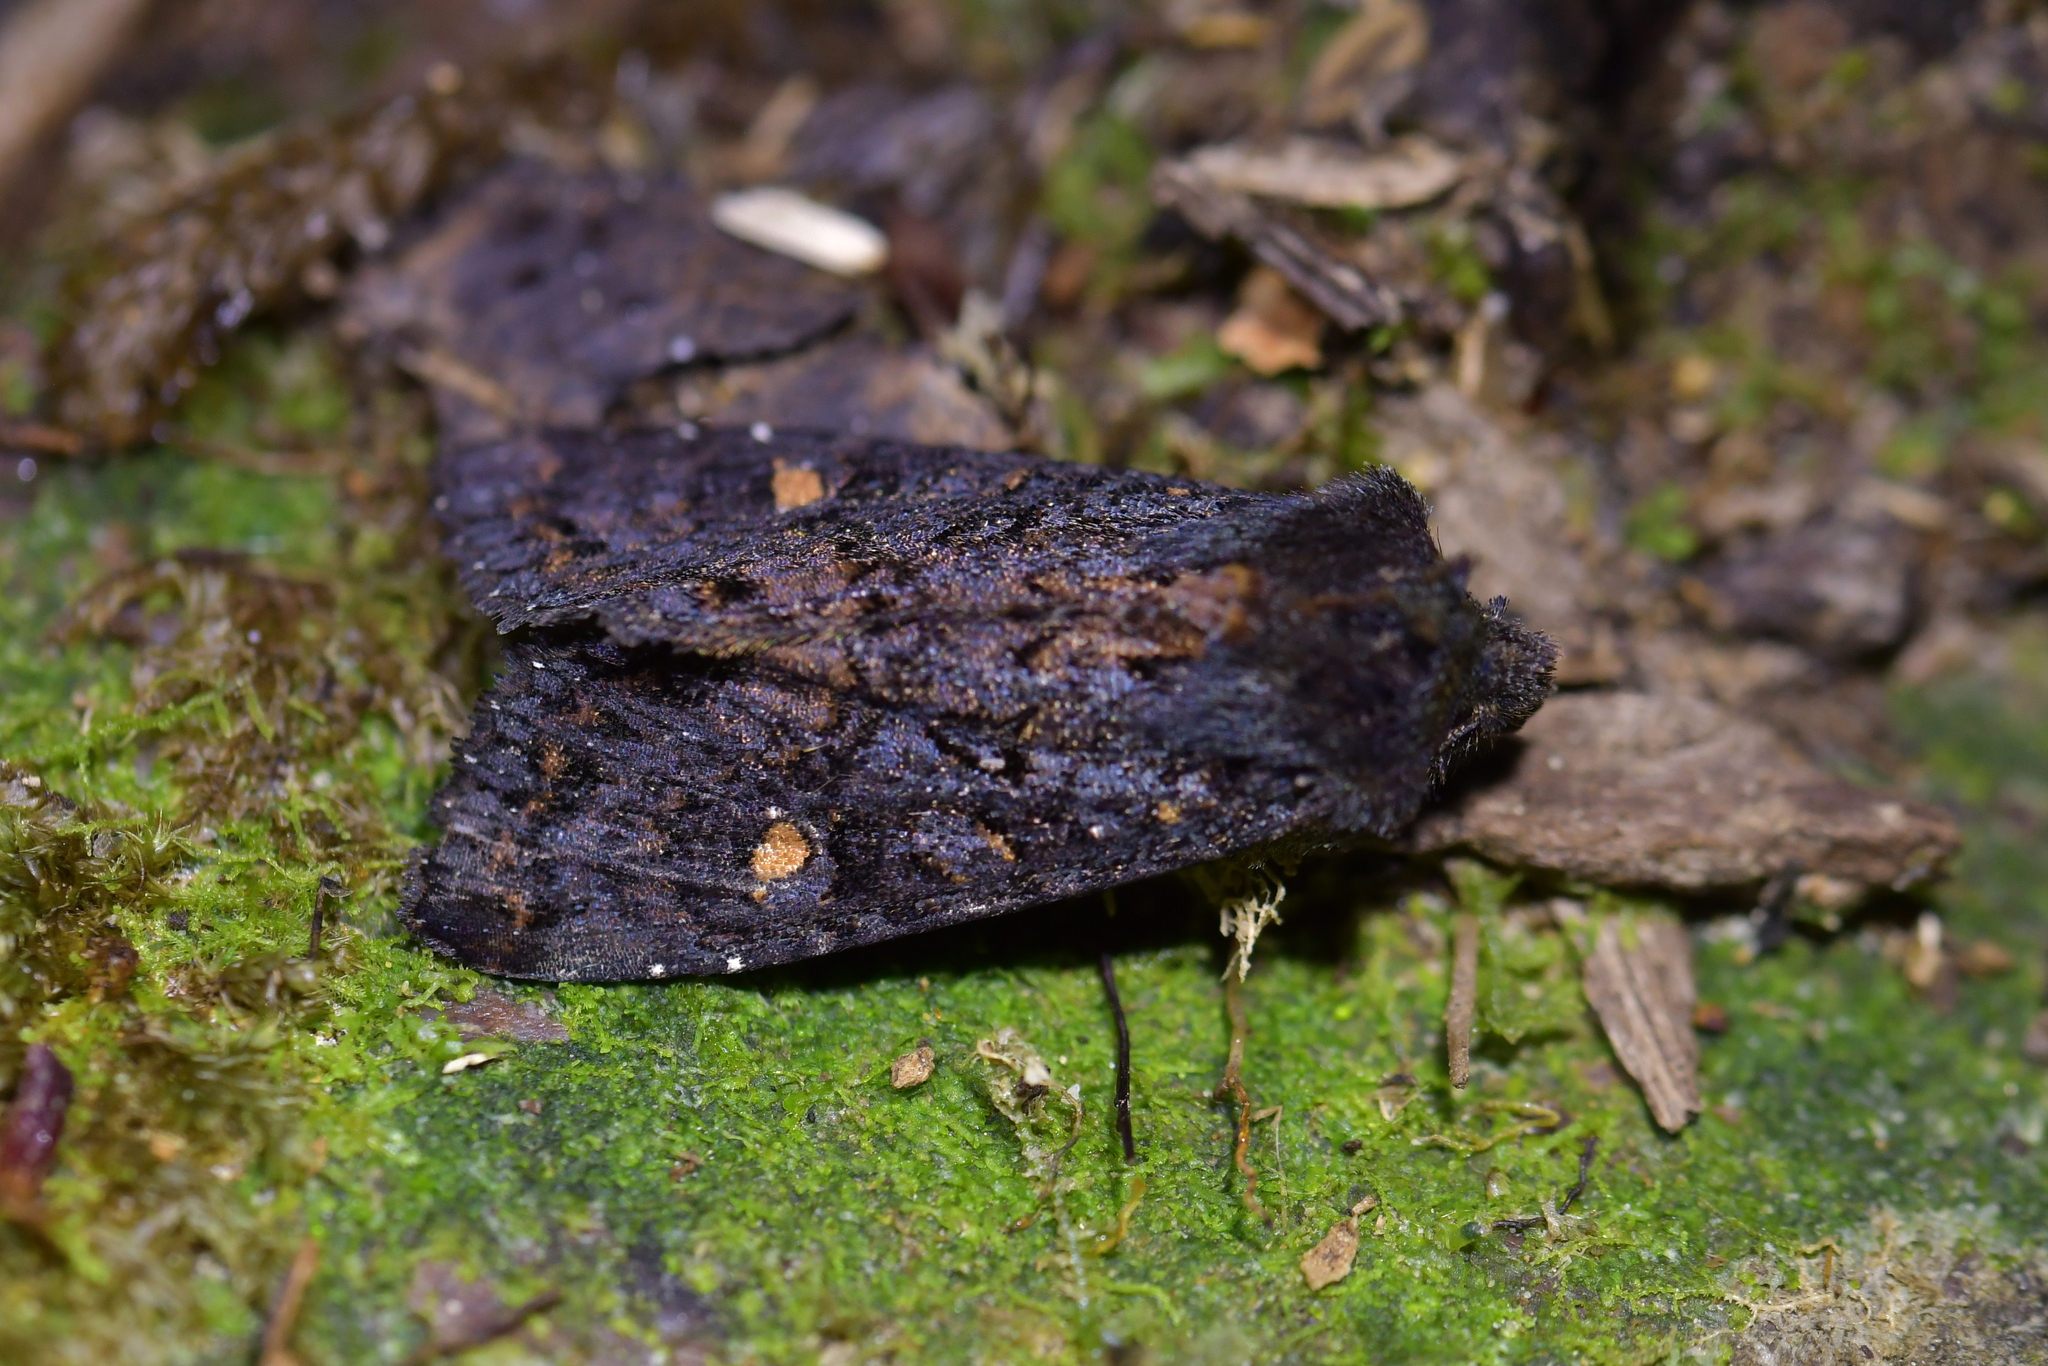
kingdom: Animalia
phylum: Arthropoda
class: Insecta
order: Lepidoptera
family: Noctuidae
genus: Meterana
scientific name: Meterana vitiosa
